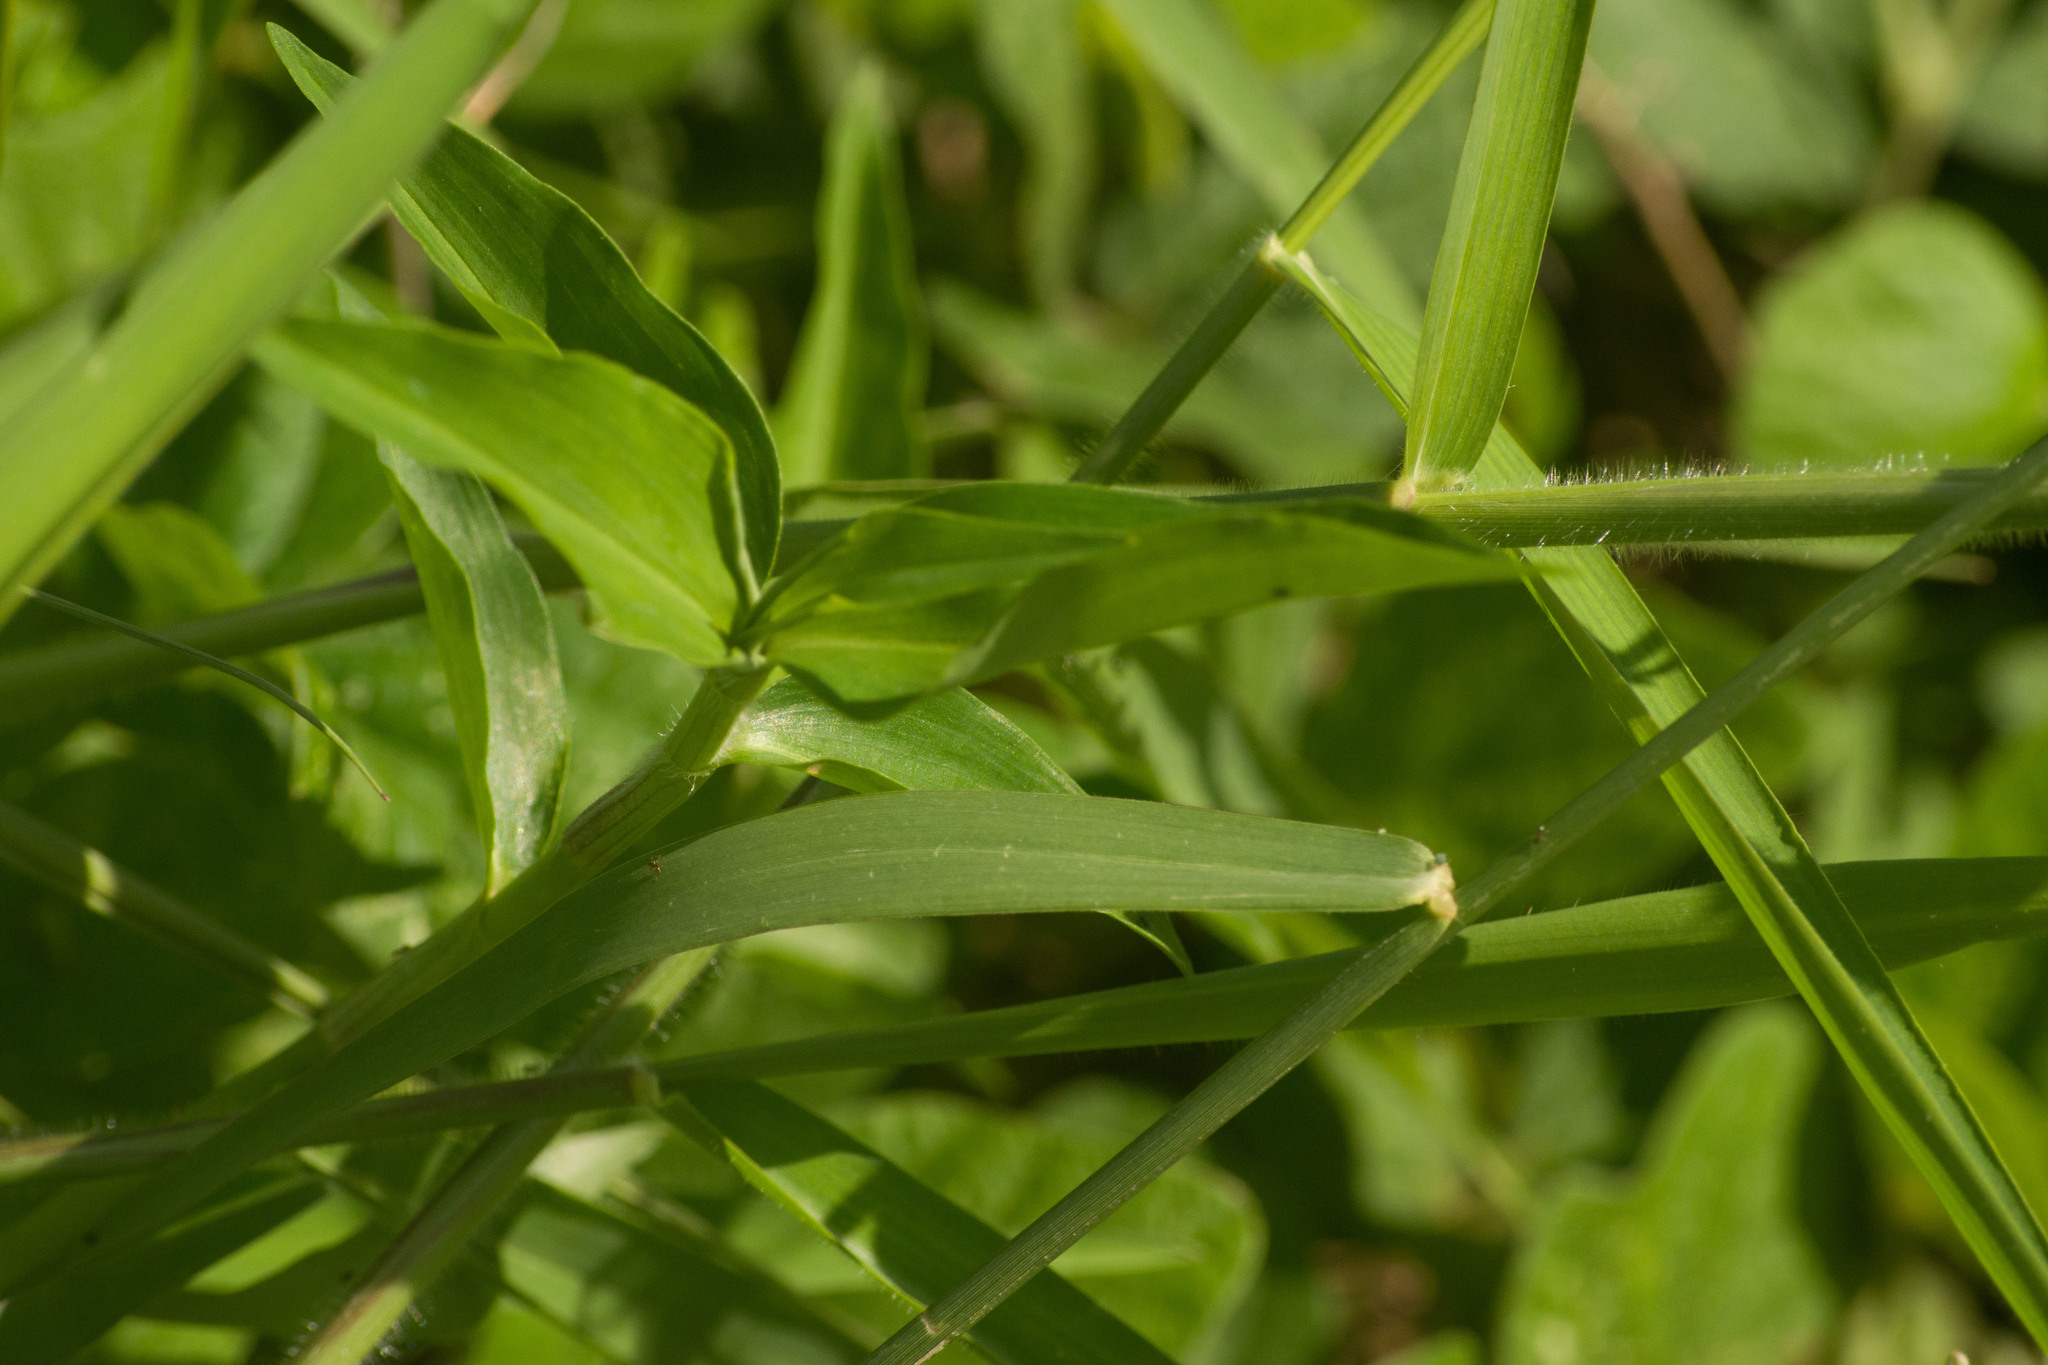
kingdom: Plantae
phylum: Tracheophyta
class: Liliopsida
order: Commelinales
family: Commelinaceae
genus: Commelina
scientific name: Commelina diffusa
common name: Climbing dayflower
